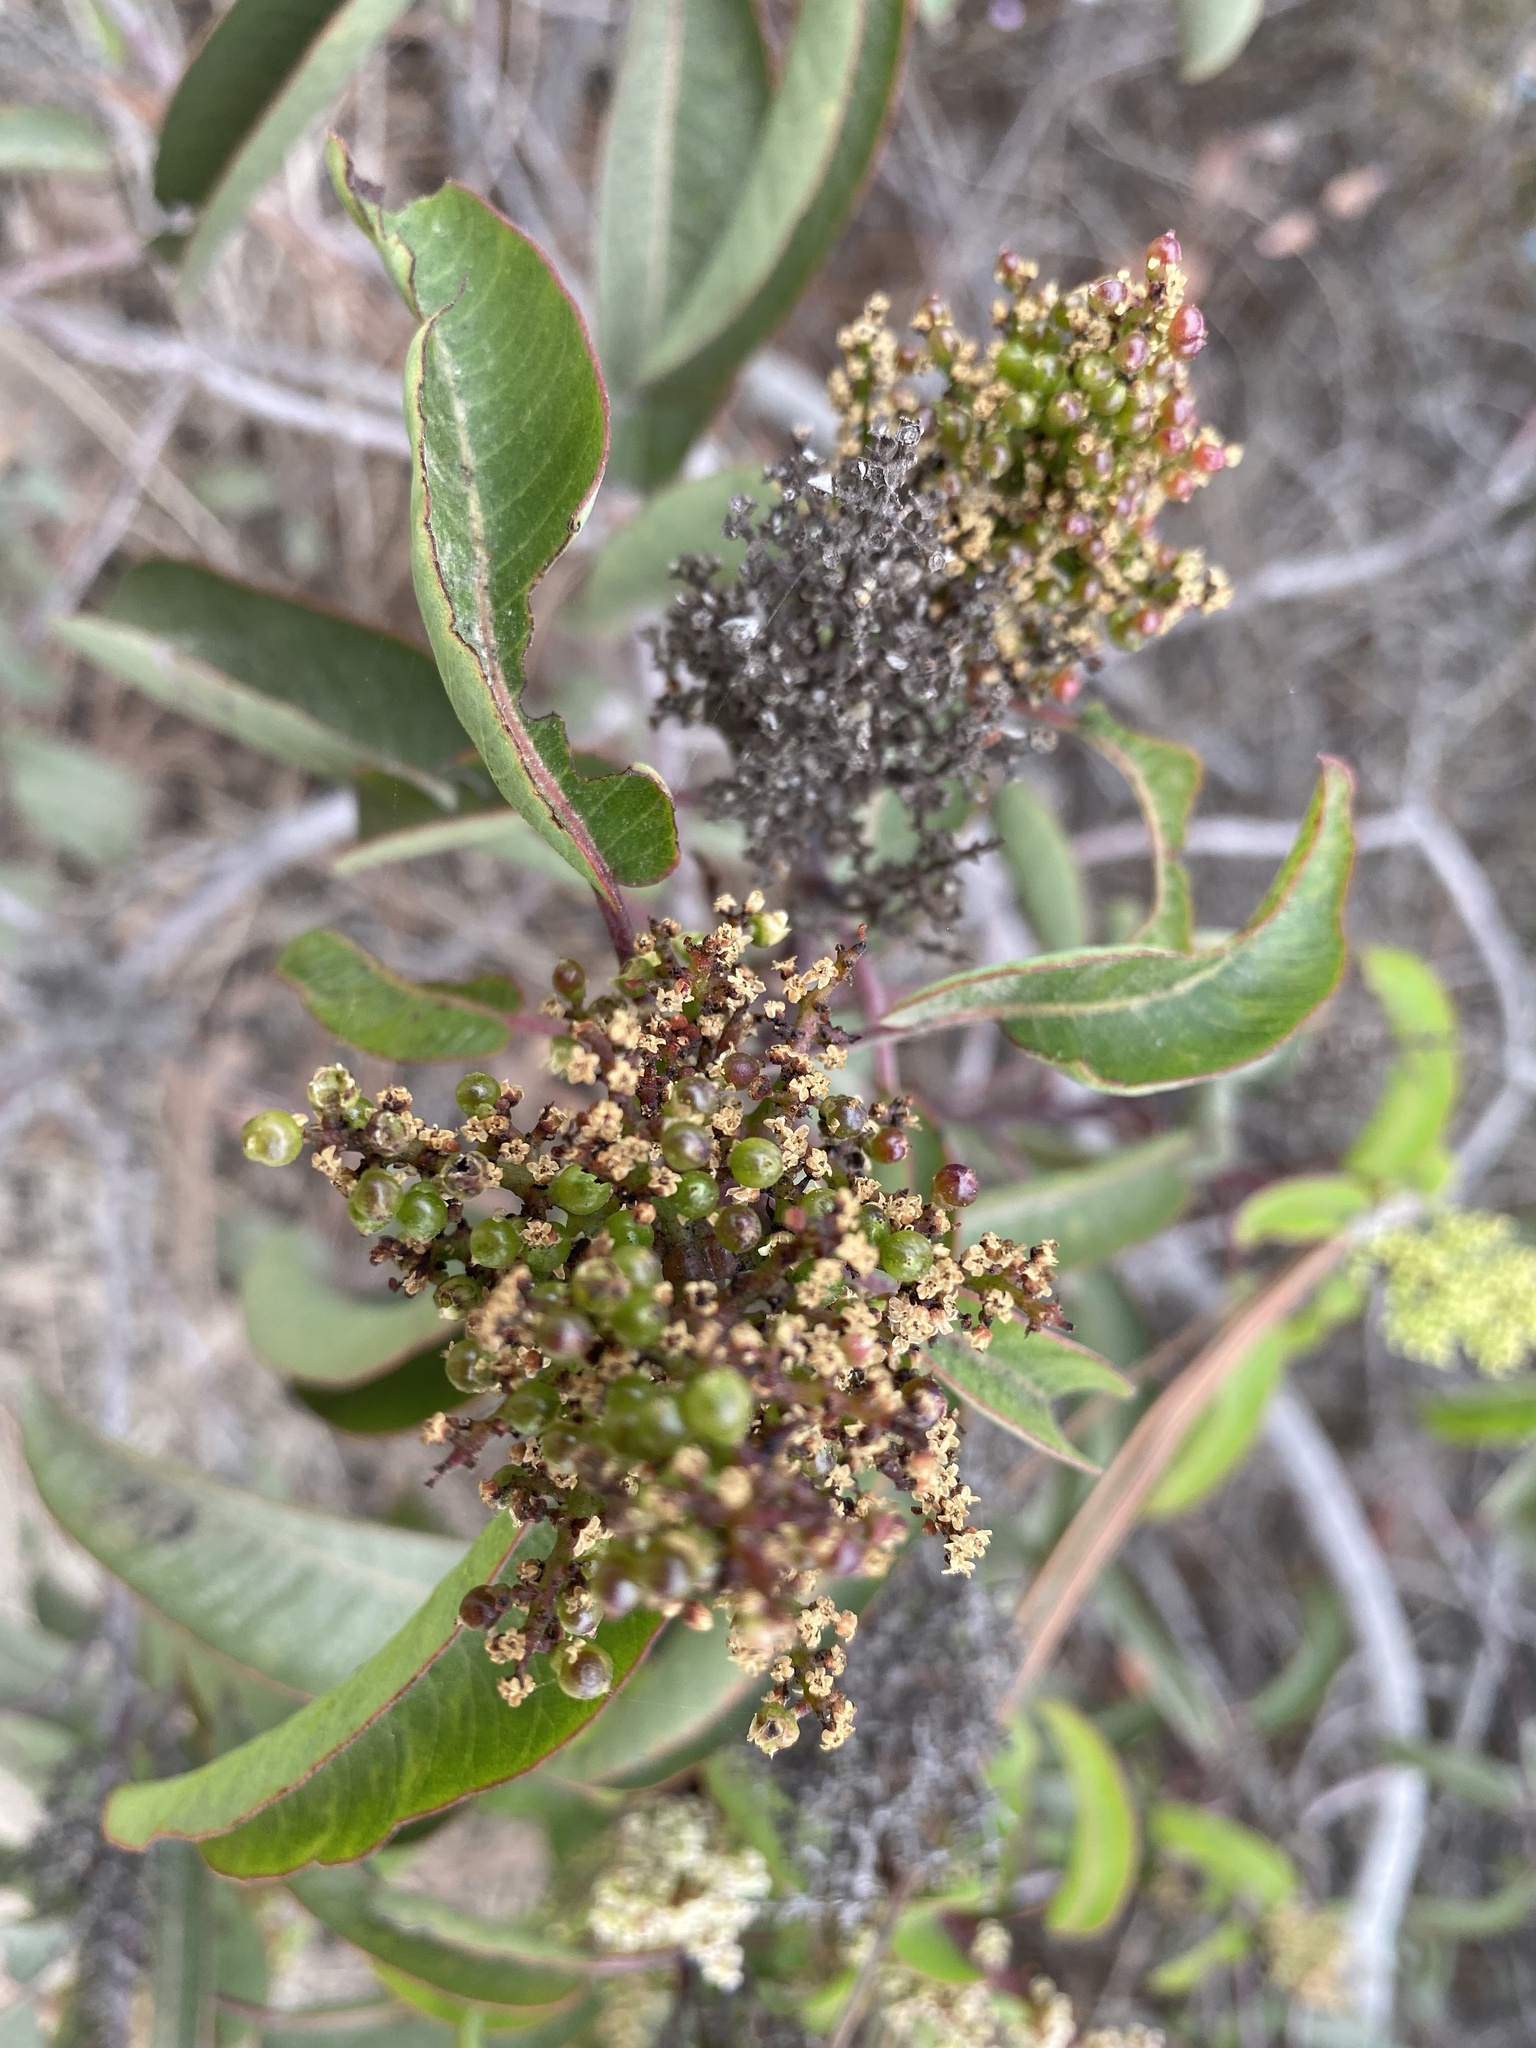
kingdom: Plantae
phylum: Tracheophyta
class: Magnoliopsida
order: Sapindales
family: Anacardiaceae
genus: Malosma
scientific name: Malosma laurina
